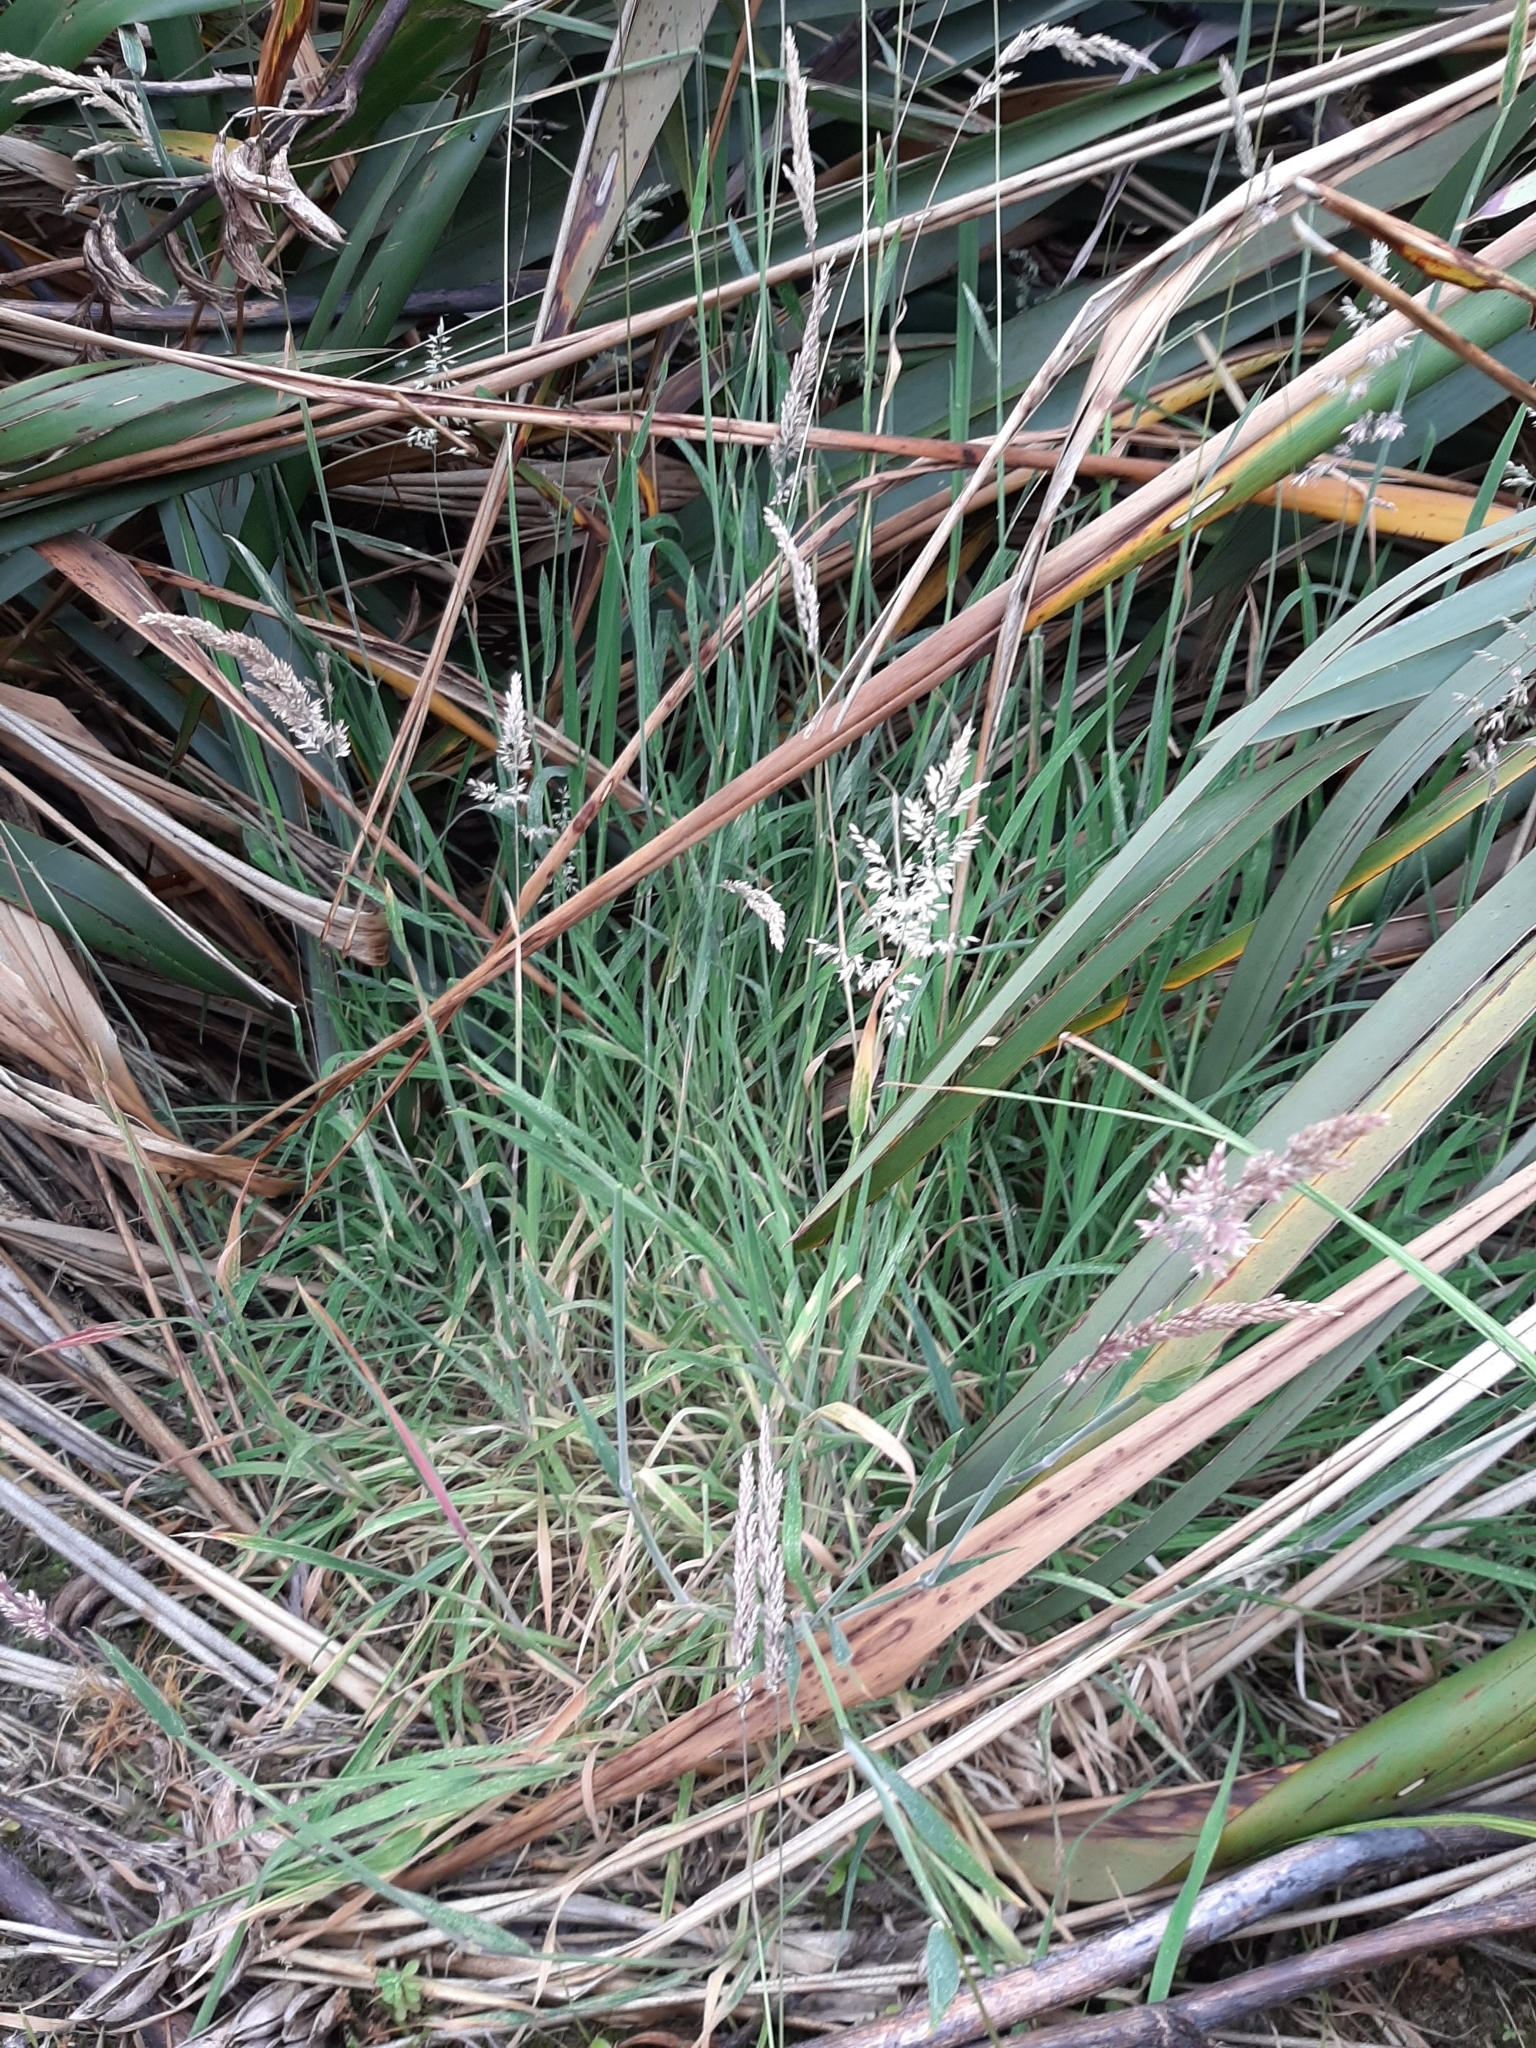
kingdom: Plantae
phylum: Tracheophyta
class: Liliopsida
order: Poales
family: Poaceae
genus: Holcus
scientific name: Holcus lanatus
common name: Yorkshire-fog
